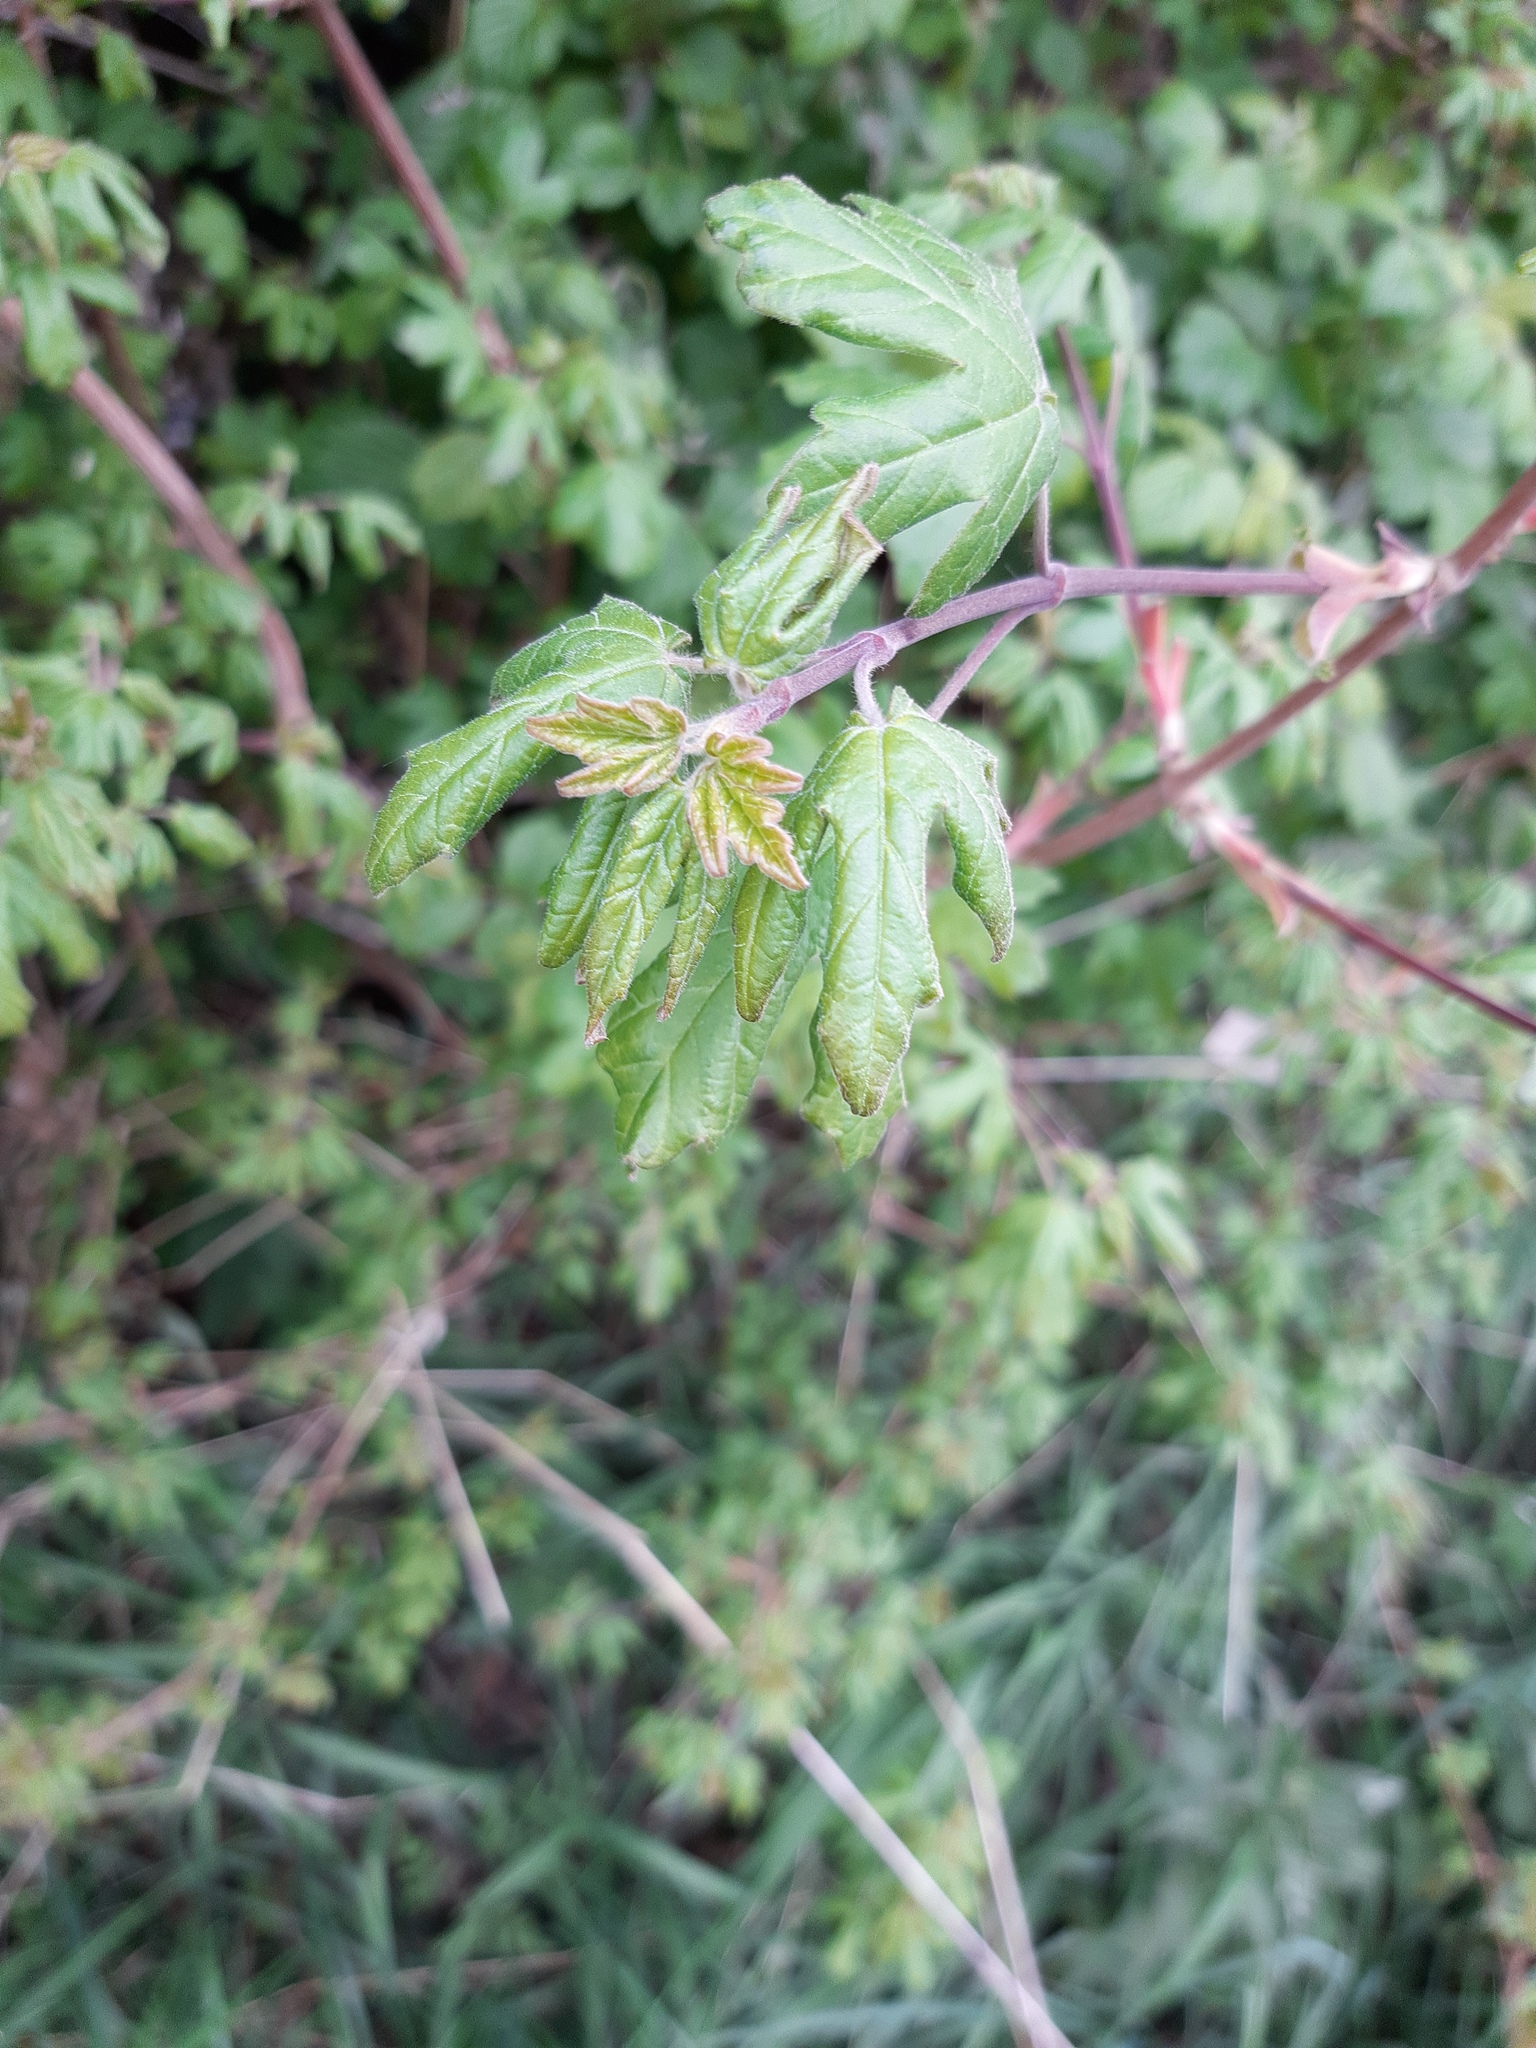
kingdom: Plantae
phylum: Tracheophyta
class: Magnoliopsida
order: Sapindales
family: Sapindaceae
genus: Acer
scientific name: Acer campestre
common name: Field maple
